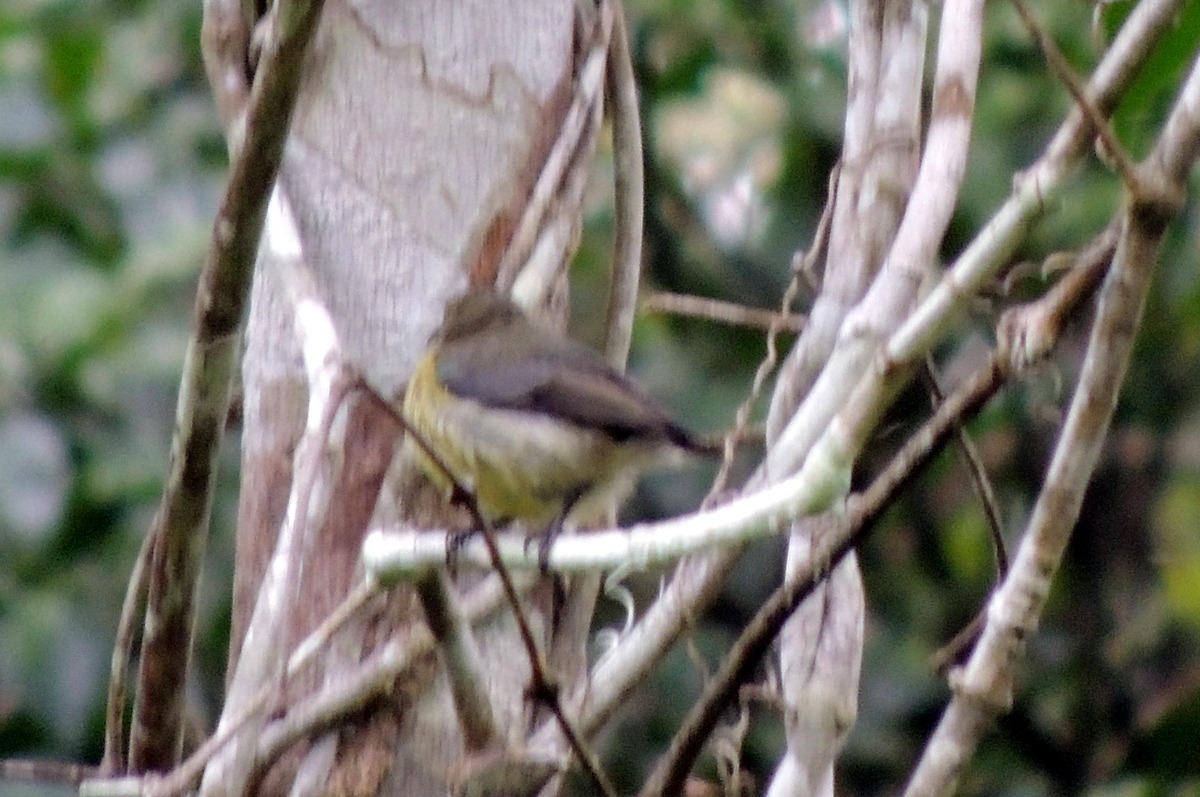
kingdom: Animalia
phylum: Chordata
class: Aves
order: Passeriformes
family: Nectariniidae
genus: Cinnyris
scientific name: Cinnyris sovimanga
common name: Souimanga sunbird
